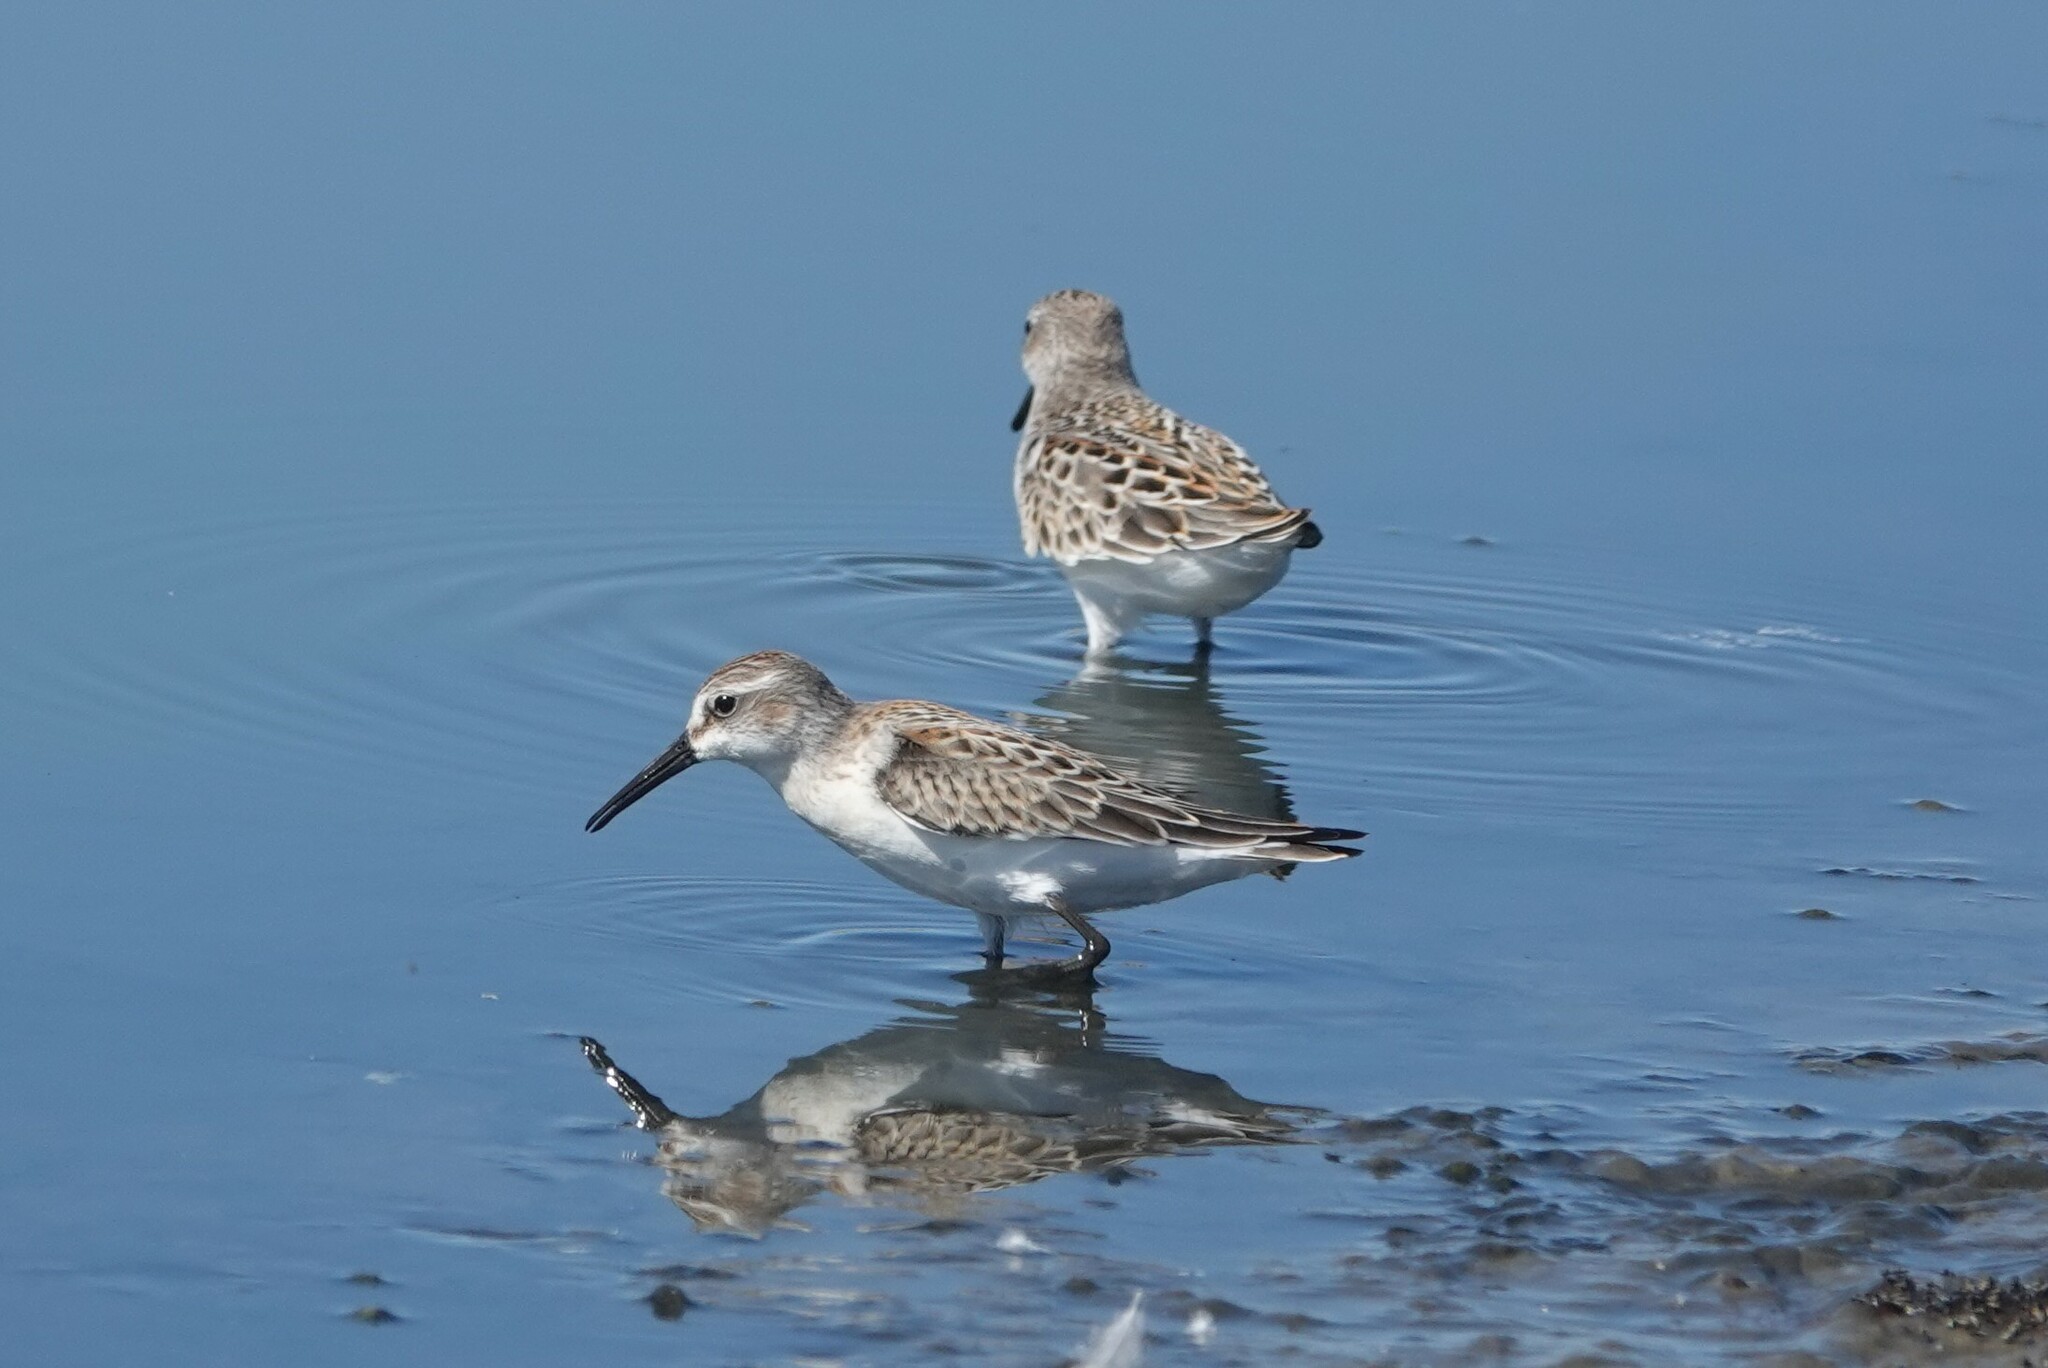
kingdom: Animalia
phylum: Chordata
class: Aves
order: Charadriiformes
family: Scolopacidae
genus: Calidris
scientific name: Calidris mauri
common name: Western sandpiper
